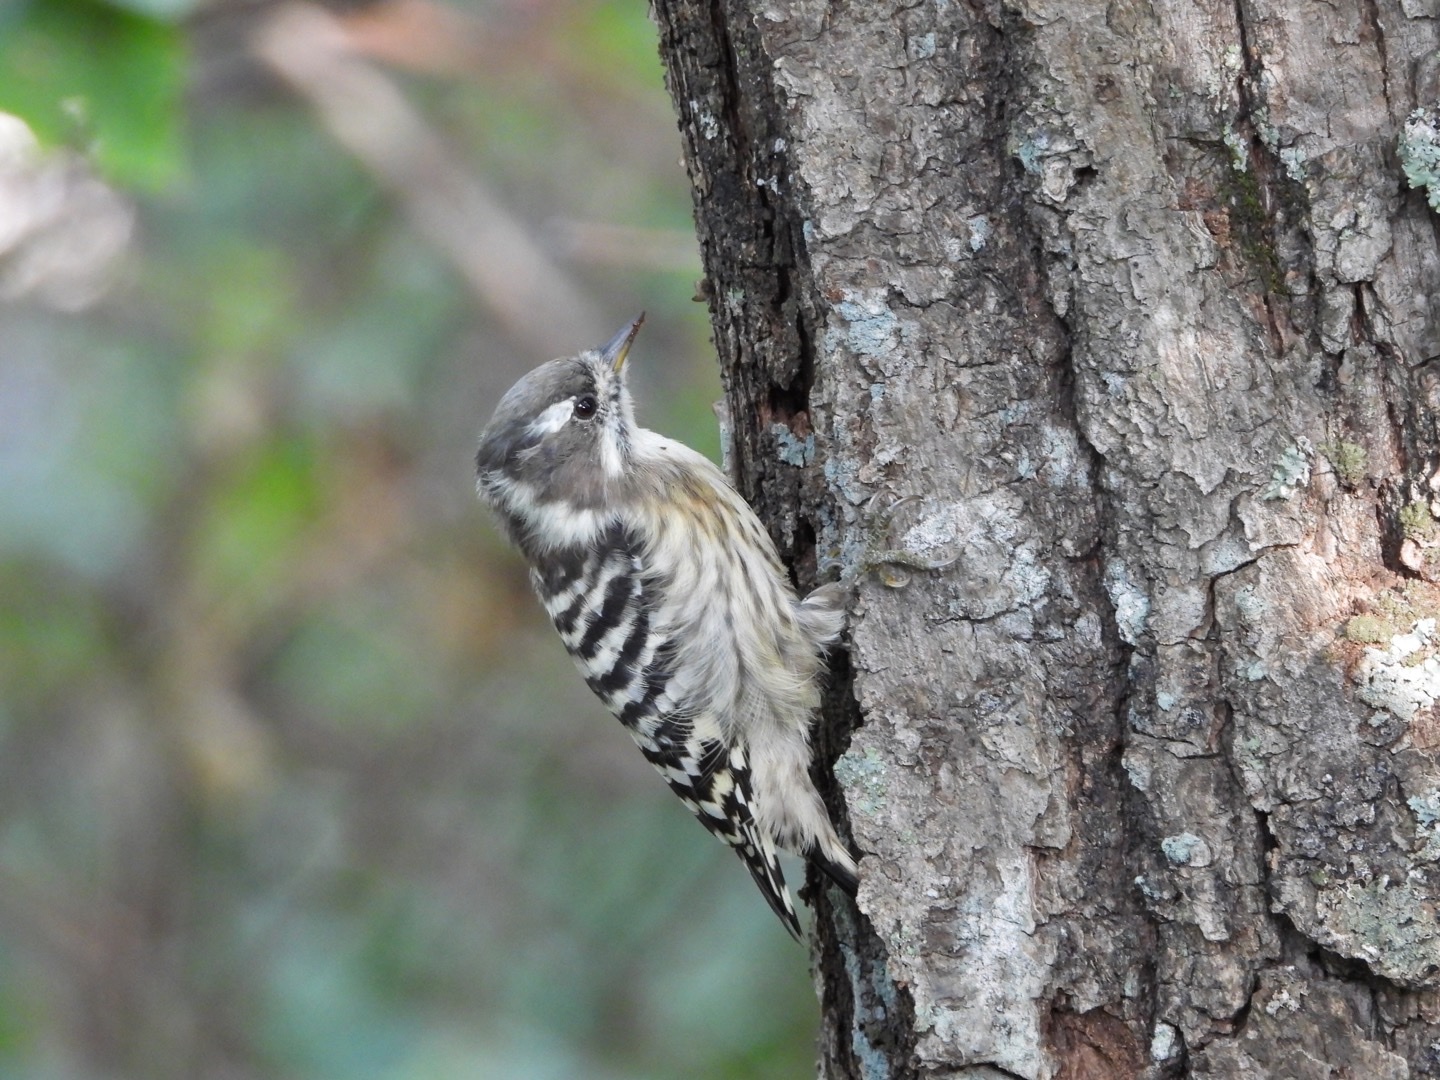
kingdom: Animalia
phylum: Chordata
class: Aves
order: Piciformes
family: Picidae
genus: Yungipicus
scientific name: Yungipicus kizuki
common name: Japanese pygmy woodpecker
